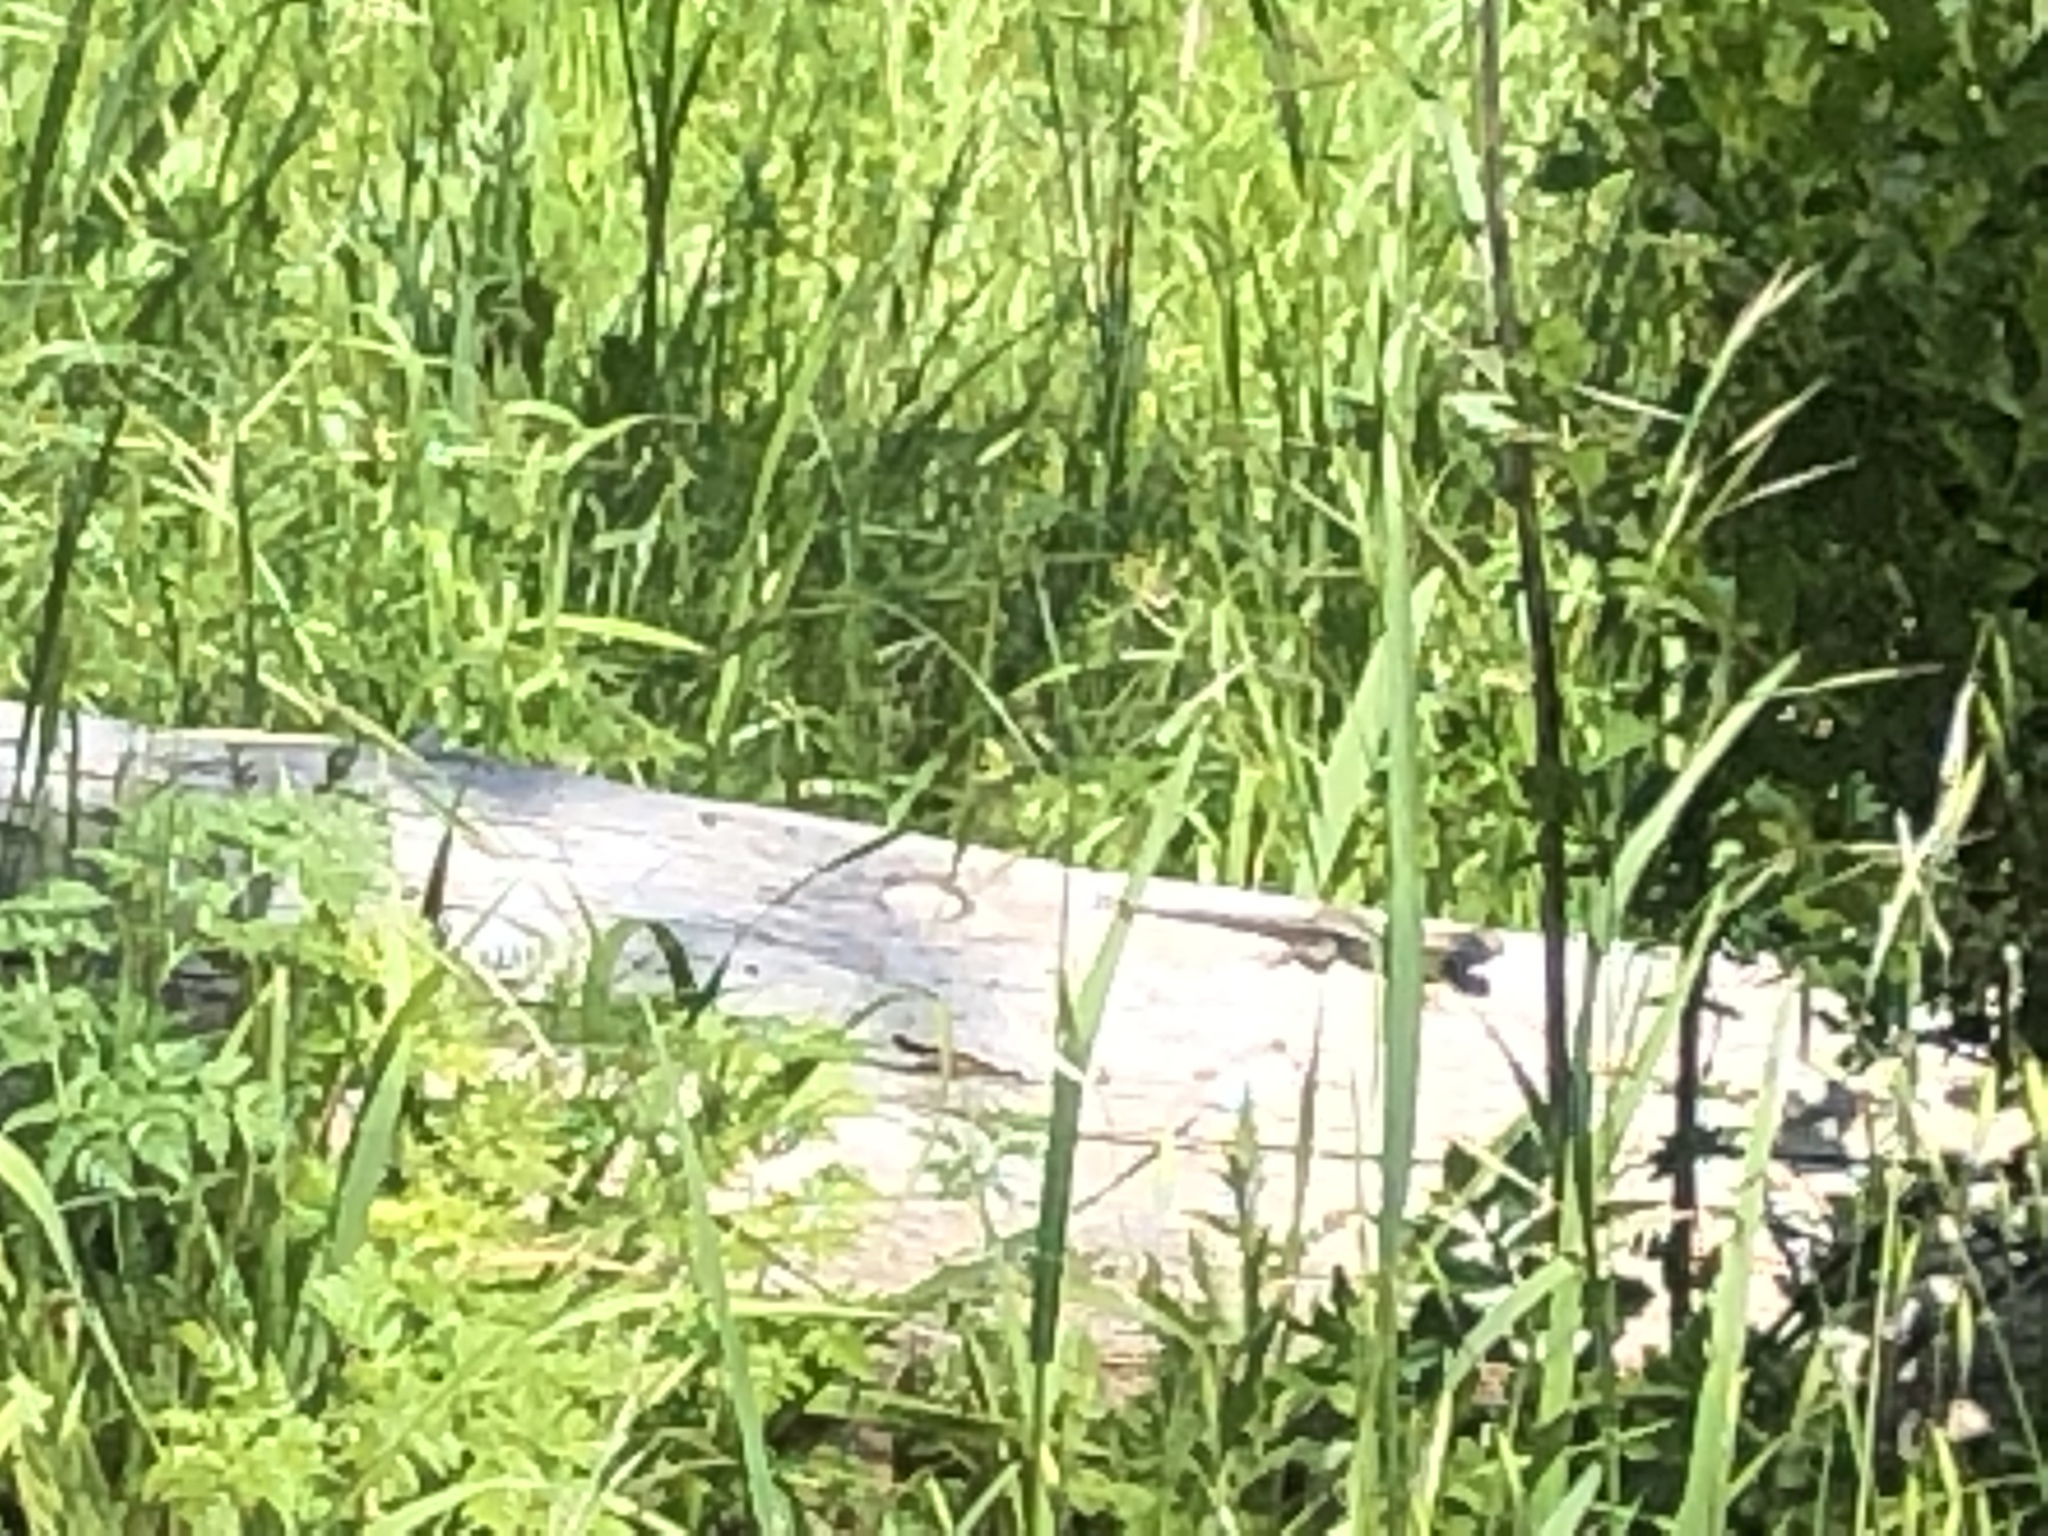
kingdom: Animalia
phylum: Chordata
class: Squamata
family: Phrynosomatidae
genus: Sceloporus
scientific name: Sceloporus occidentalis
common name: Western fence lizard
